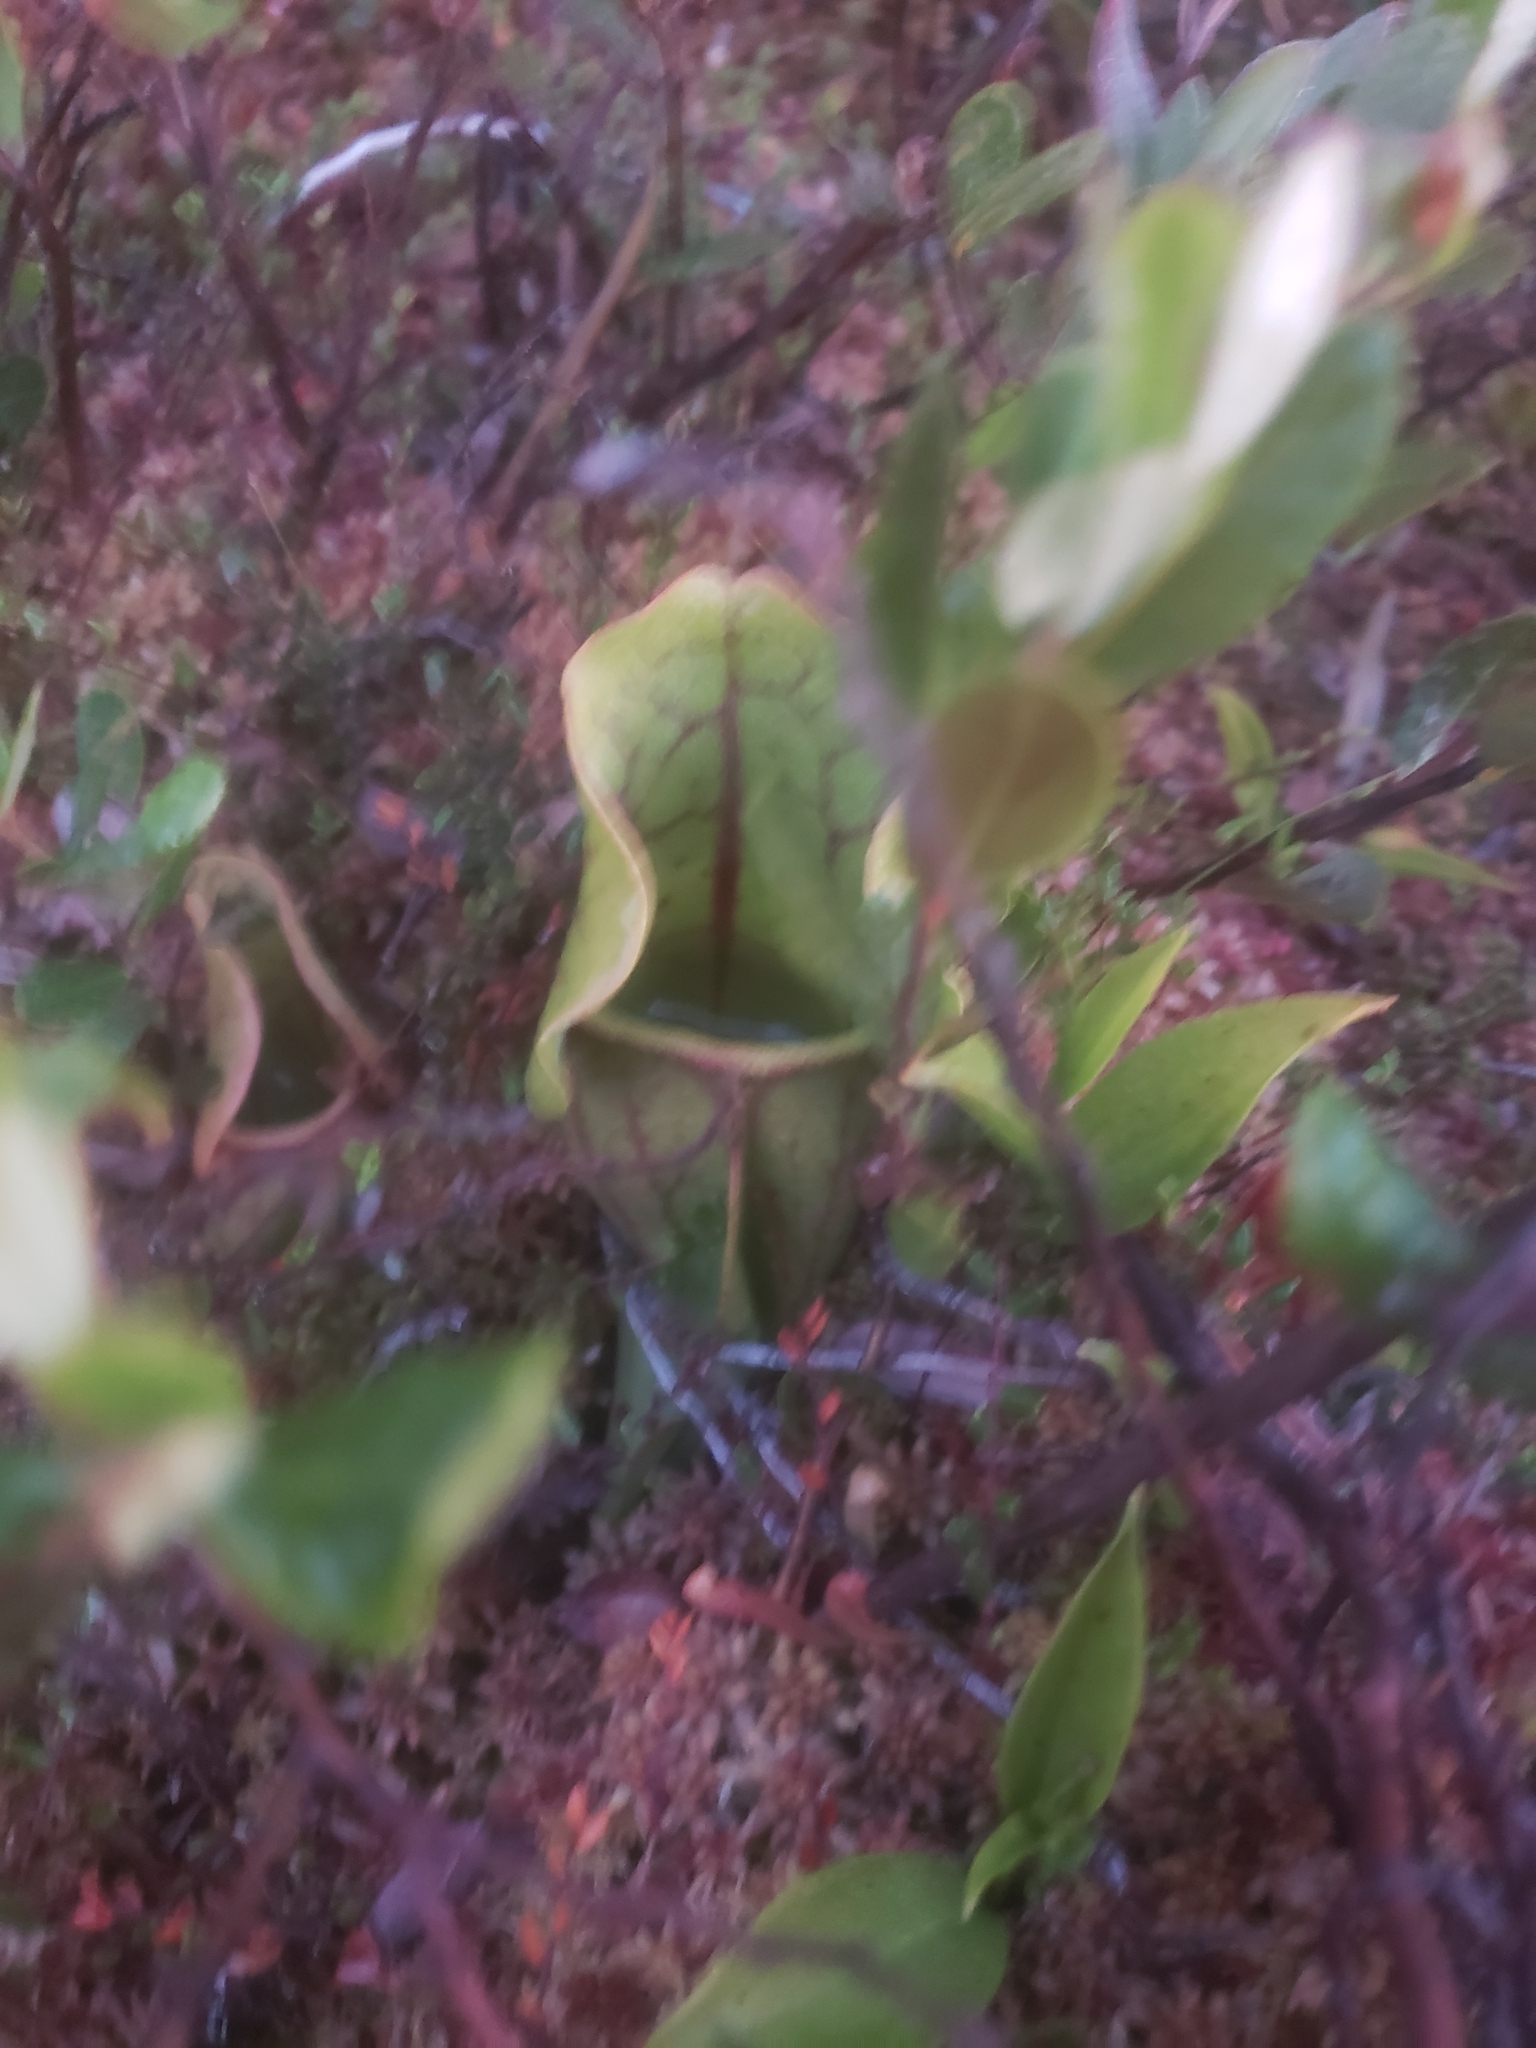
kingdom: Plantae
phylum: Tracheophyta
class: Magnoliopsida
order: Ericales
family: Sarraceniaceae
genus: Sarracenia
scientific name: Sarracenia purpurea
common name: Pitcherplant
